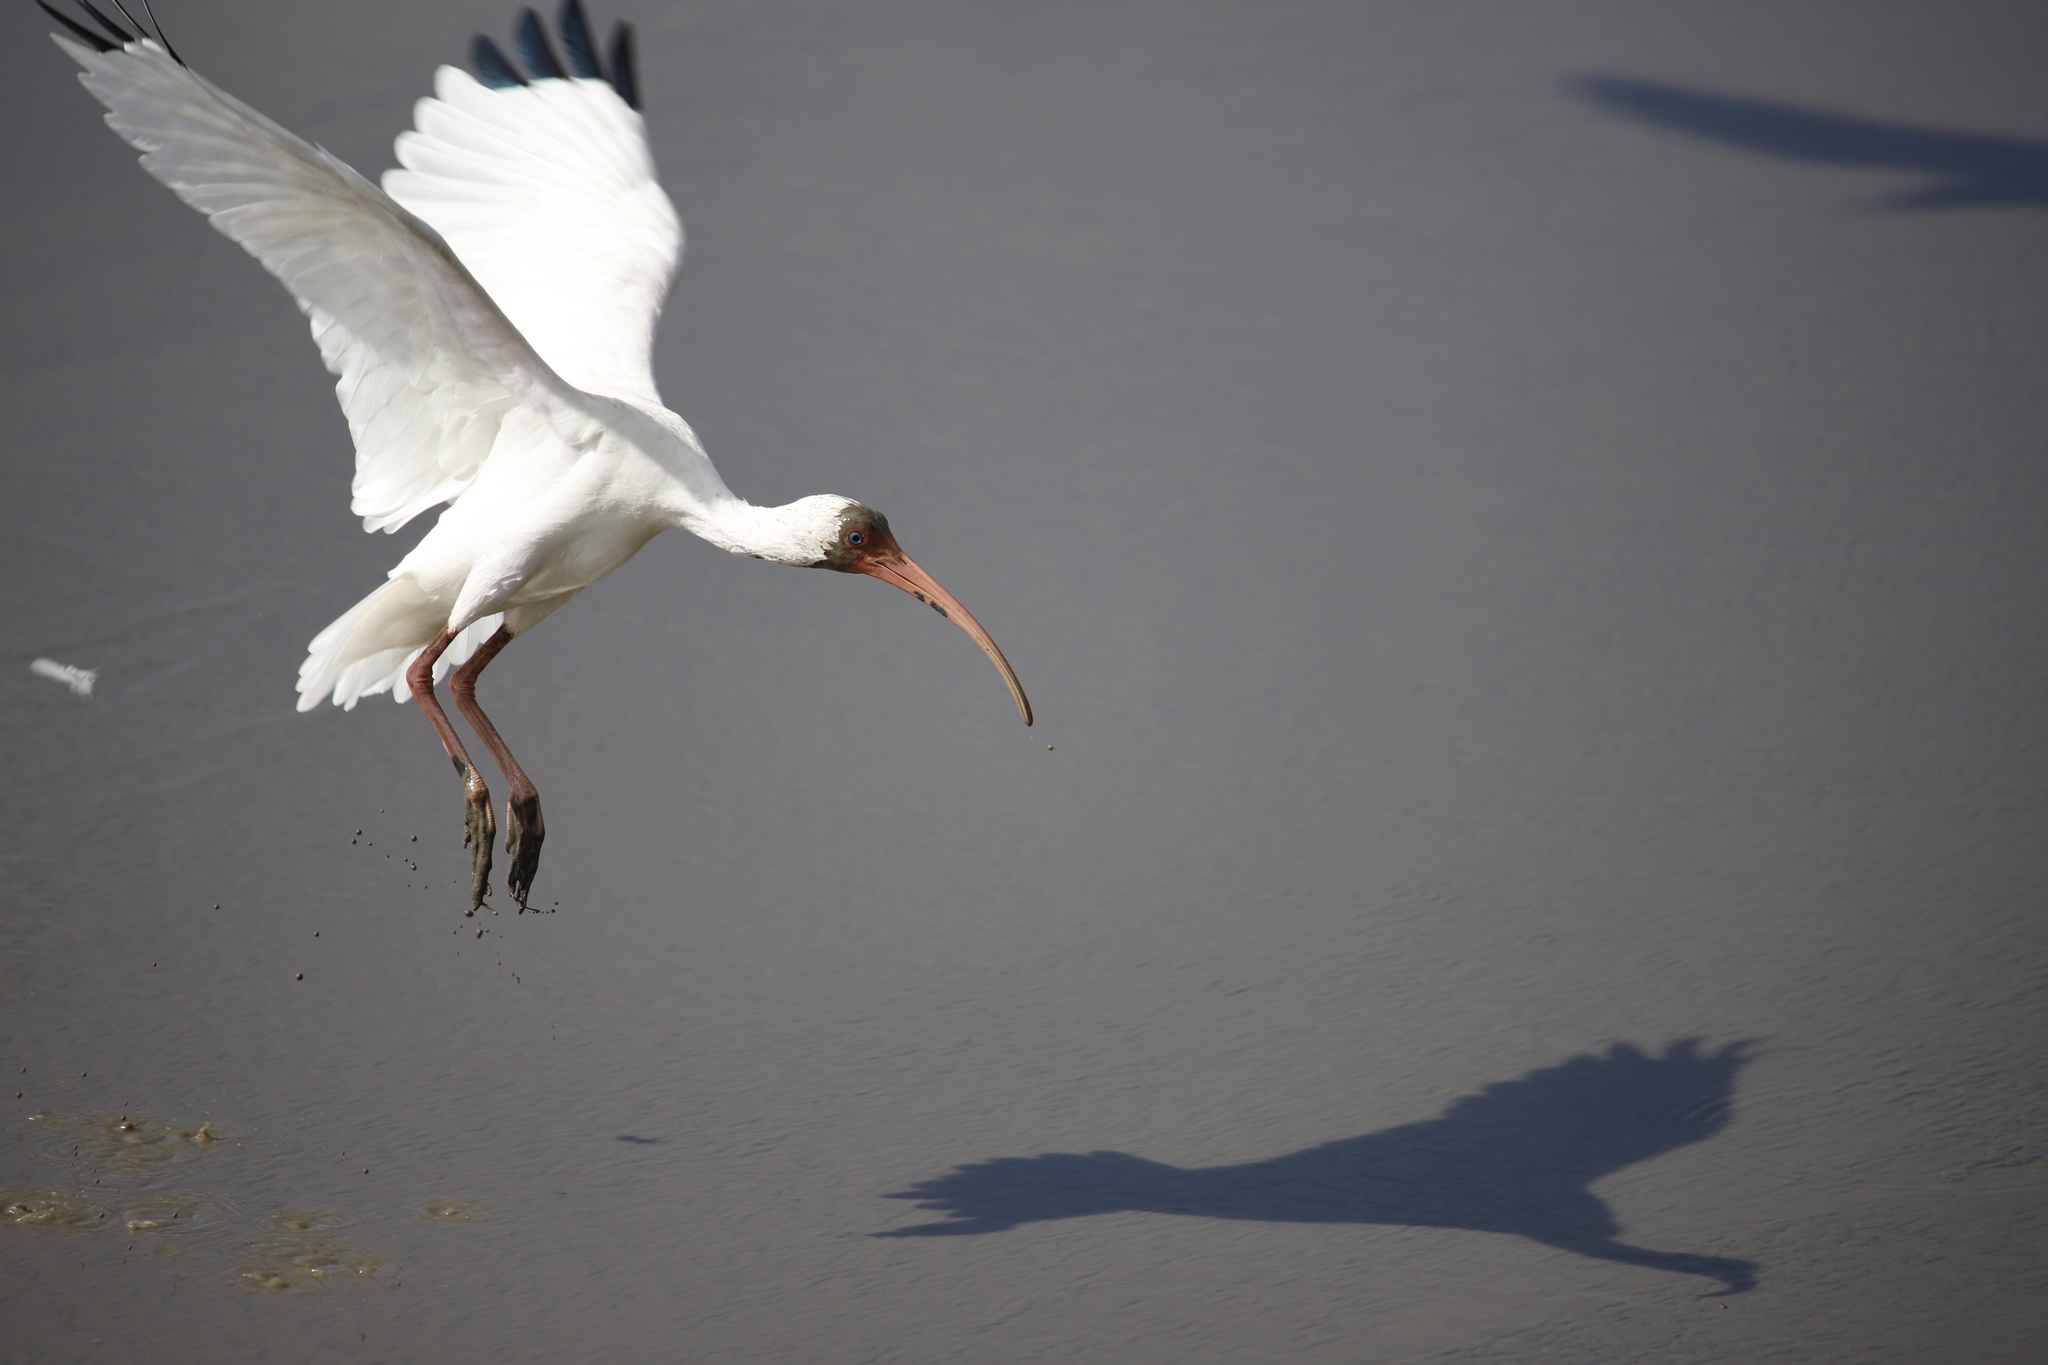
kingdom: Animalia
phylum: Chordata
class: Aves
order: Pelecaniformes
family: Threskiornithidae
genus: Eudocimus
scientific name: Eudocimus albus
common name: White ibis
